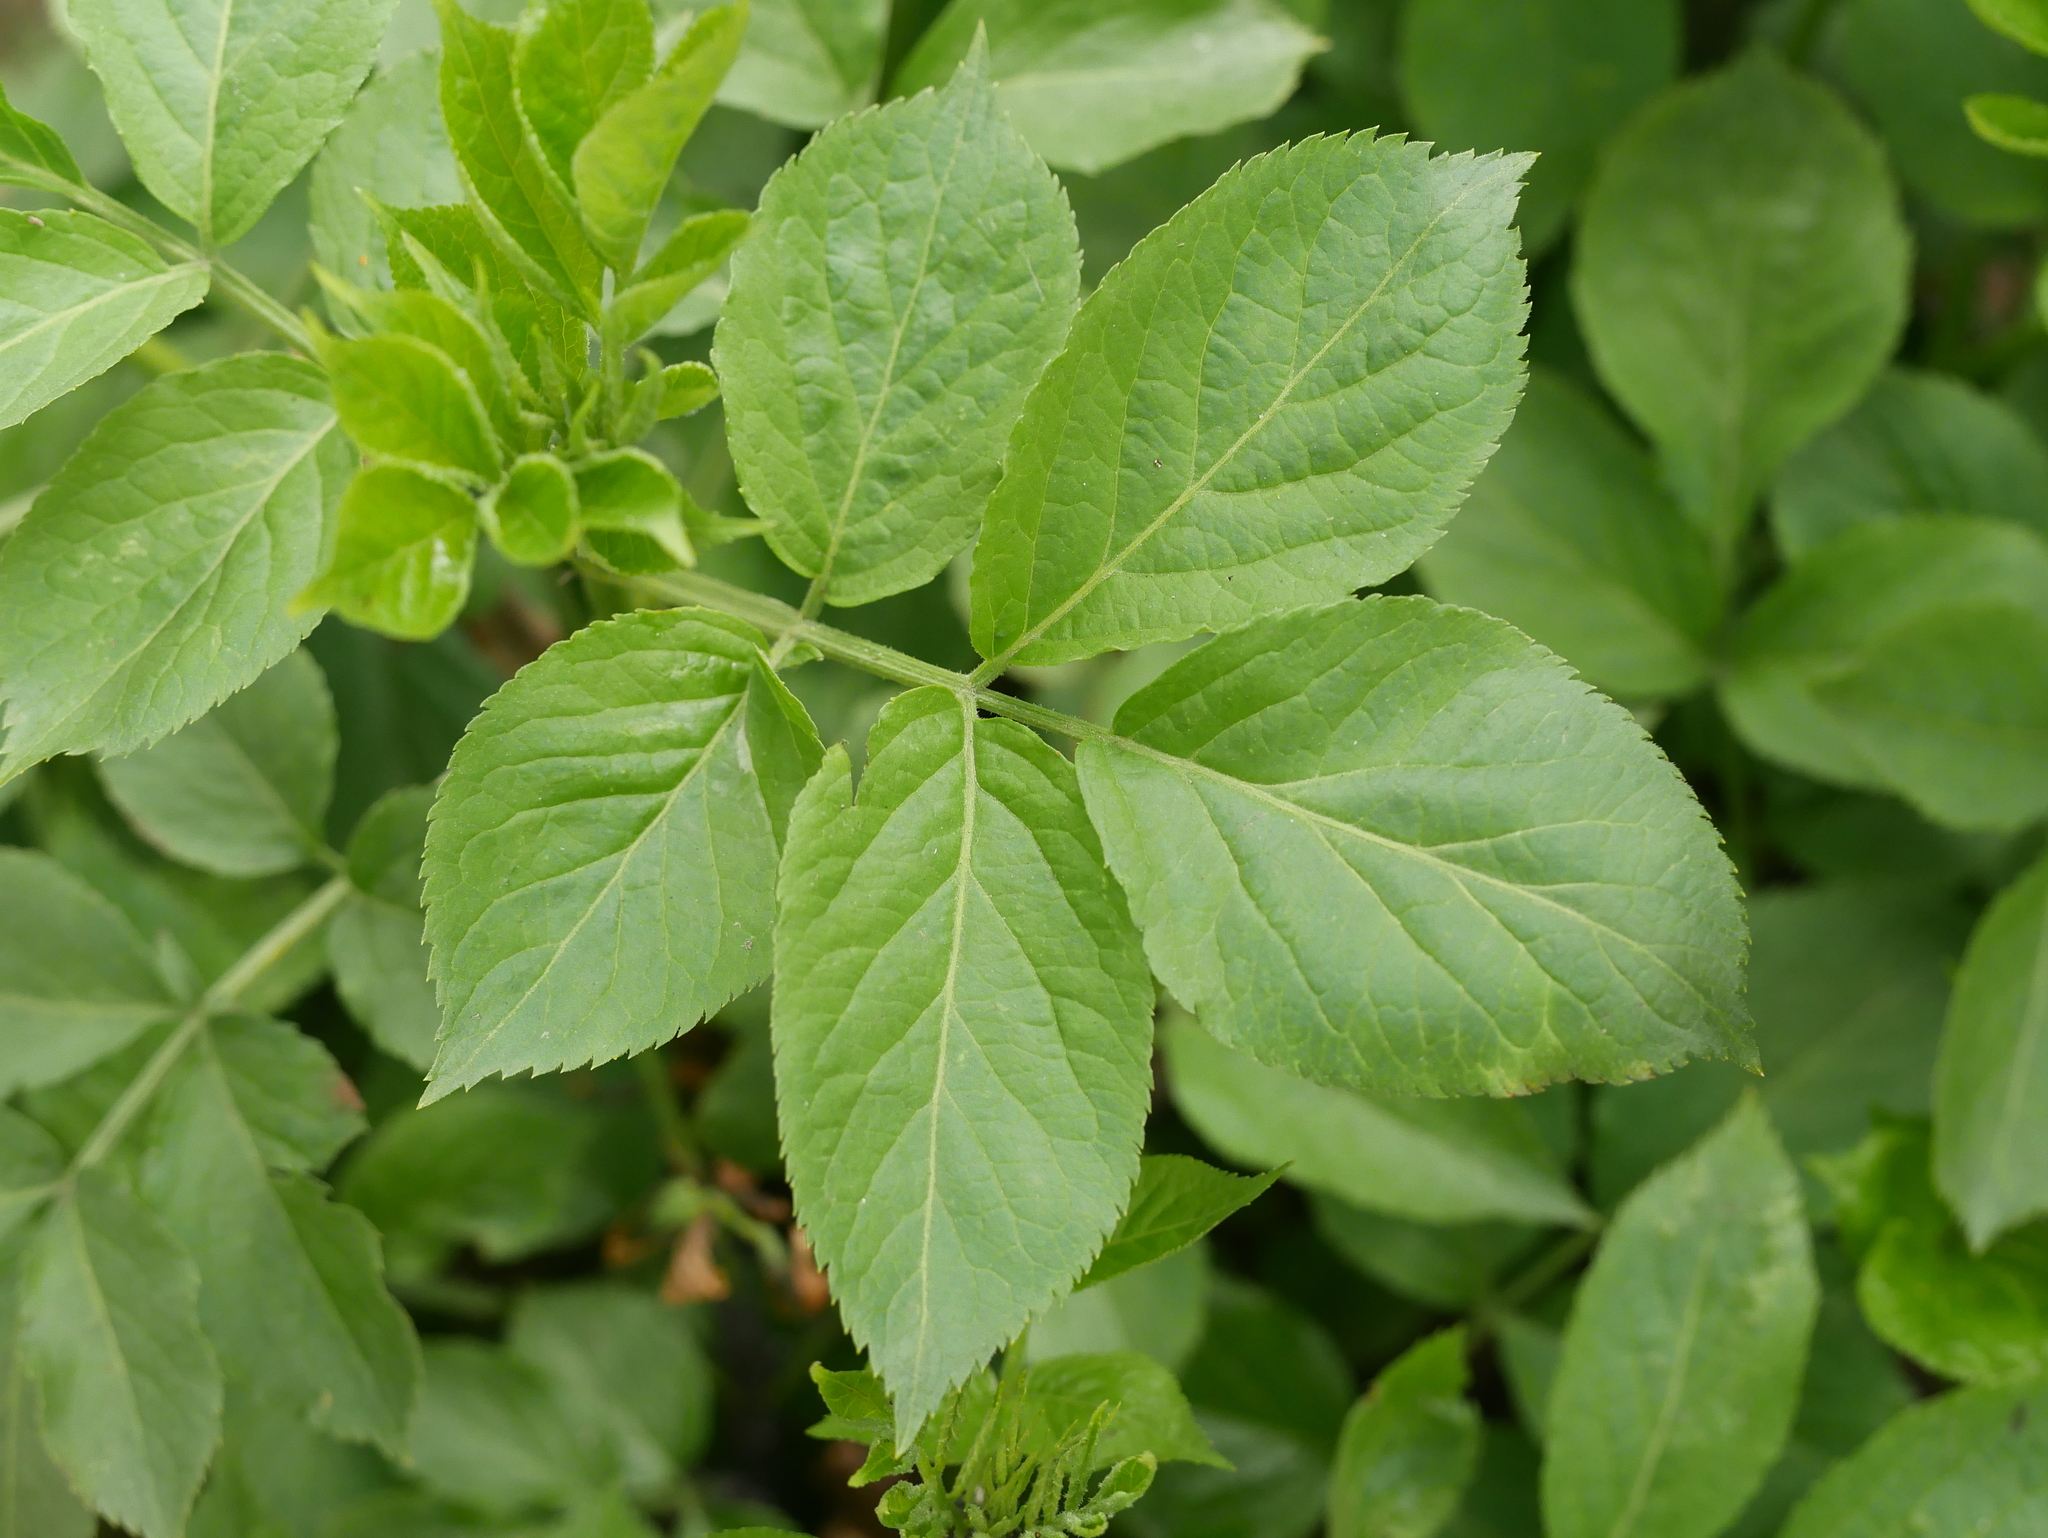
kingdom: Plantae
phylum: Tracheophyta
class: Magnoliopsida
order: Dipsacales
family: Viburnaceae
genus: Sambucus
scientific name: Sambucus nigra
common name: Elder
